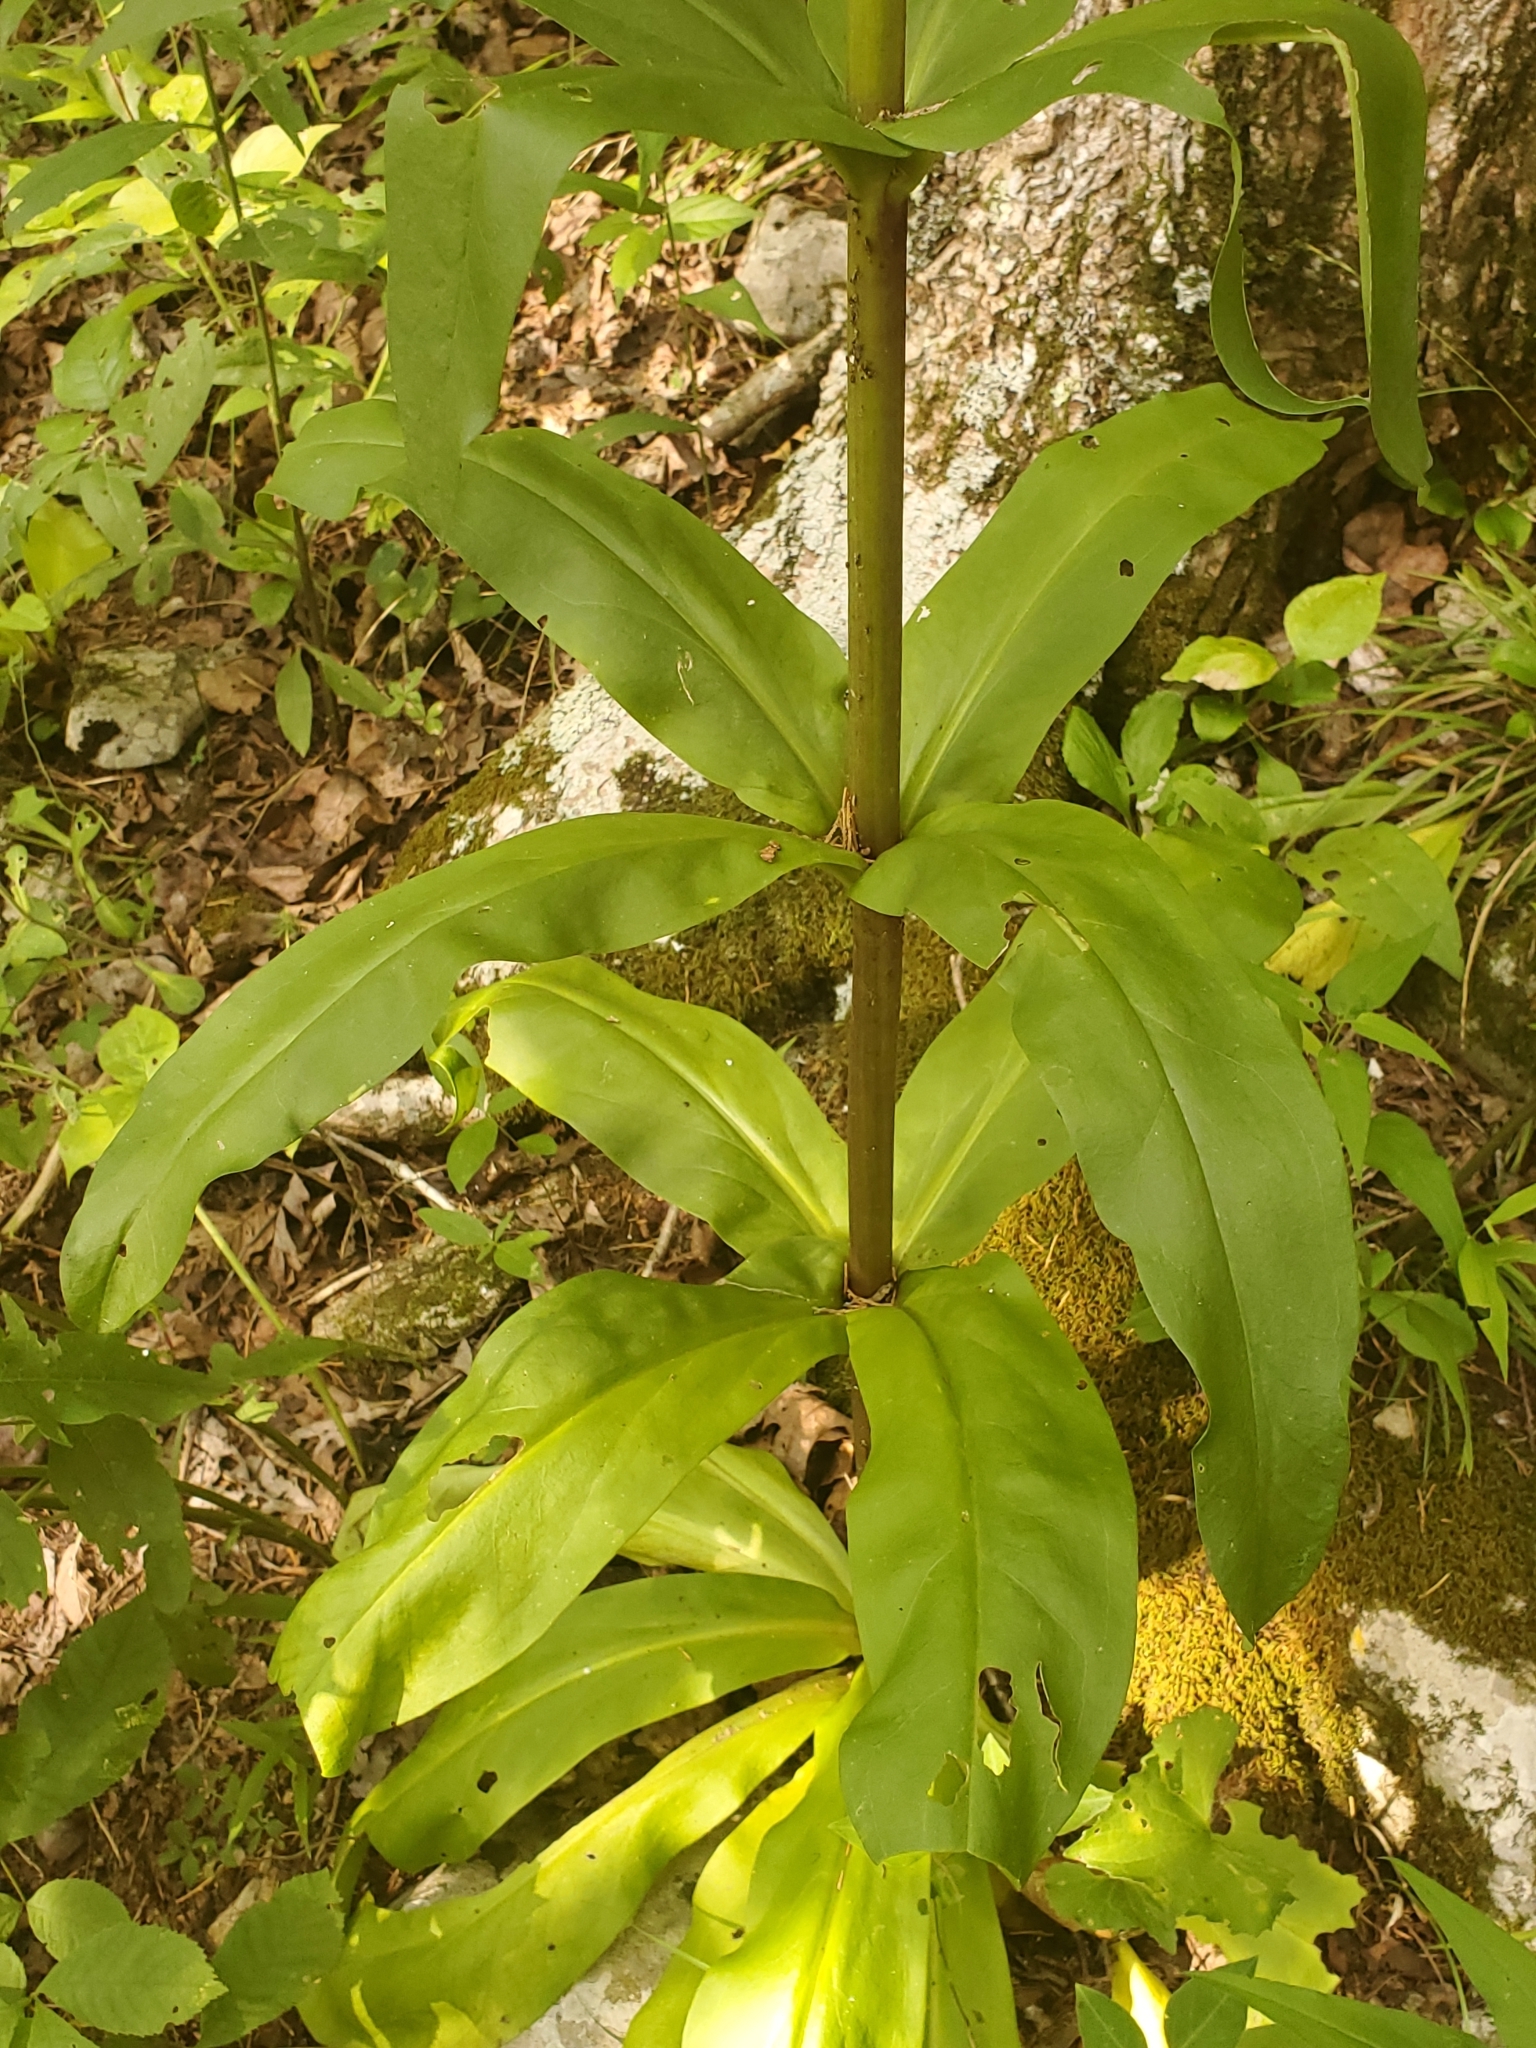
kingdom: Plantae
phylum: Tracheophyta
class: Magnoliopsida
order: Gentianales
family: Gentianaceae
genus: Frasera
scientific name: Frasera caroliniensis
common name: American columbo
